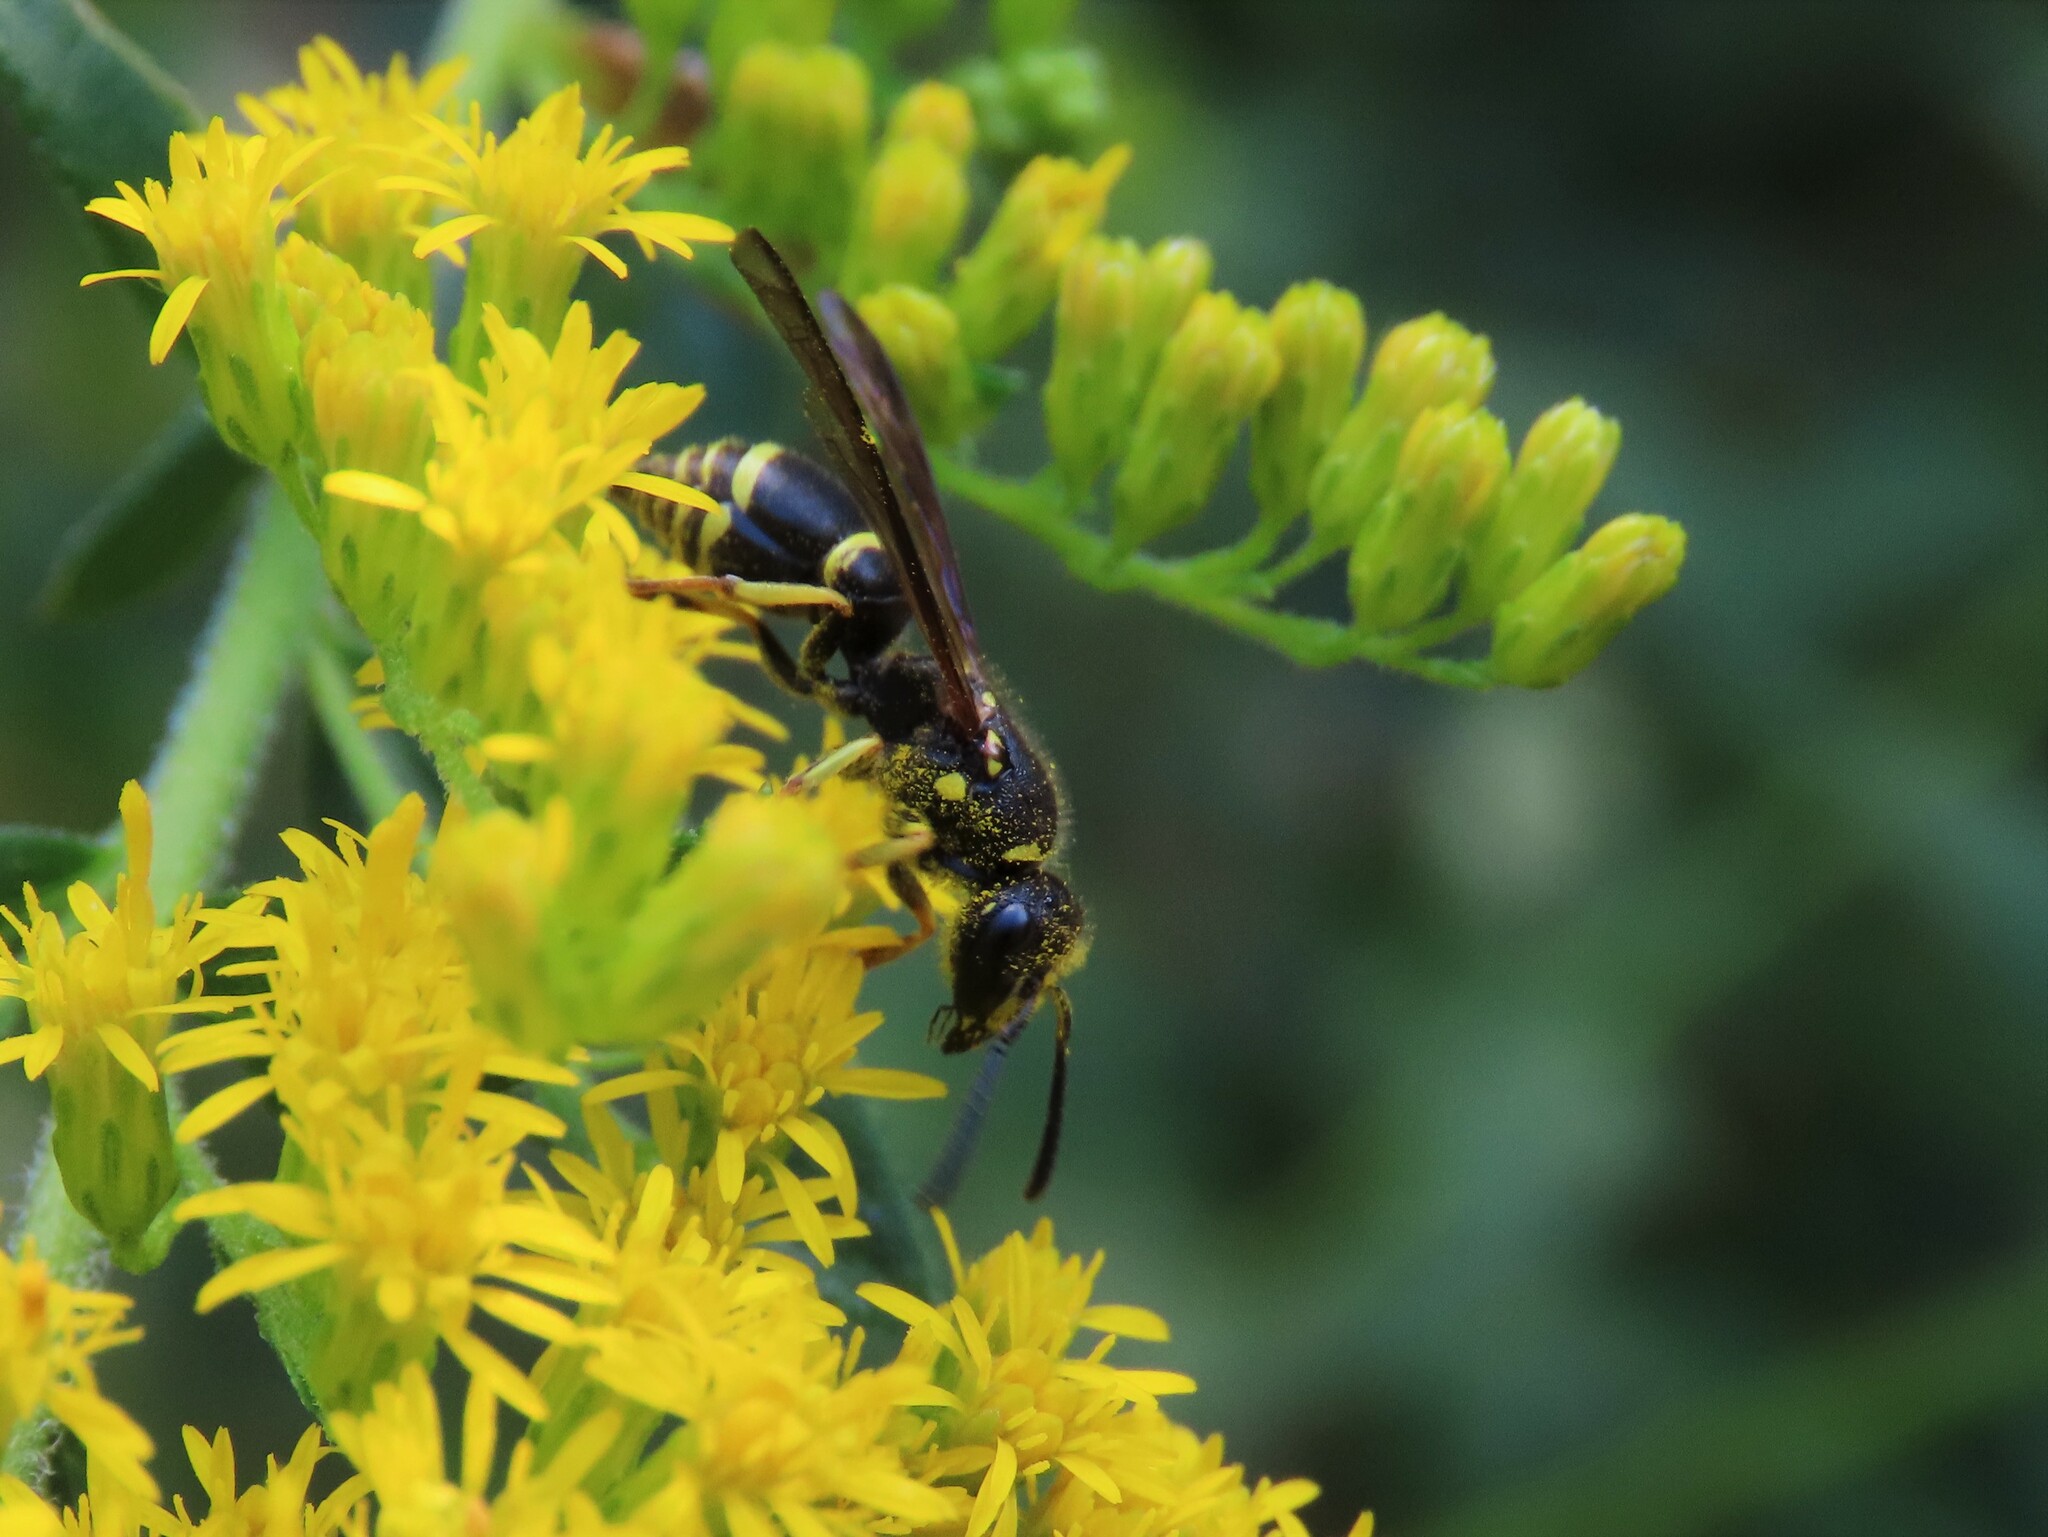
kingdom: Animalia
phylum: Arthropoda
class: Insecta
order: Hymenoptera
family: Vespidae
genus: Ancistrocerus
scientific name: Ancistrocerus adiabatus
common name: Bramble mason wasp
